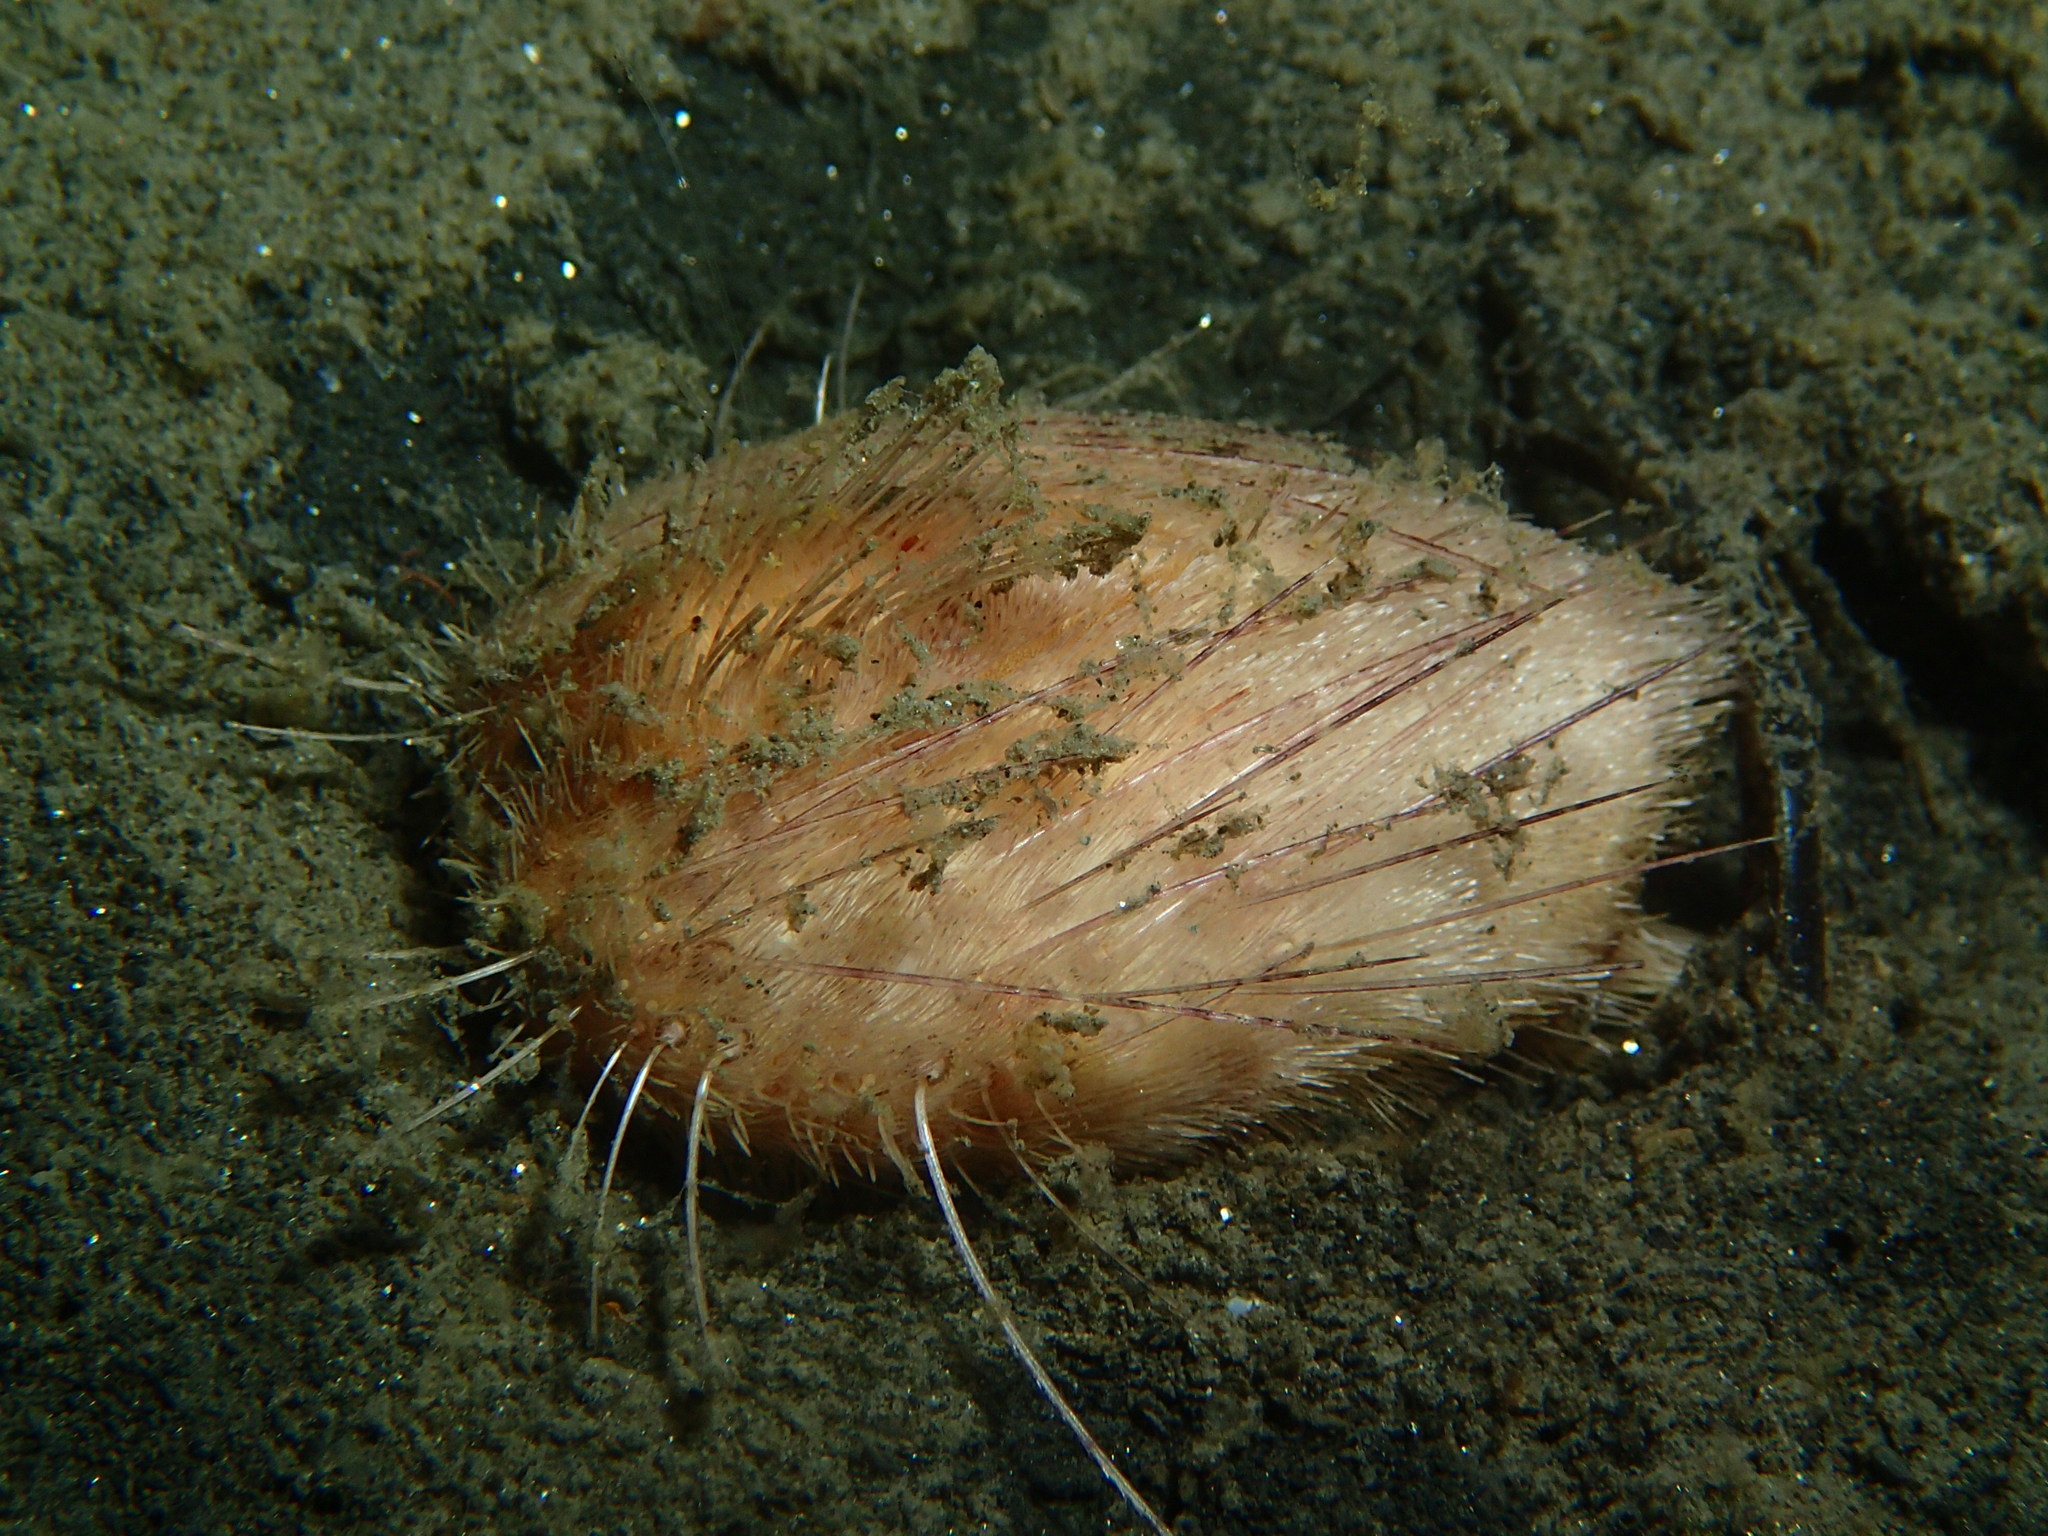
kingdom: Animalia
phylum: Echinodermata
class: Echinoidea
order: Spatangoida
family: Loveniidae
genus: Lovenia
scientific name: Lovenia cordiformis
